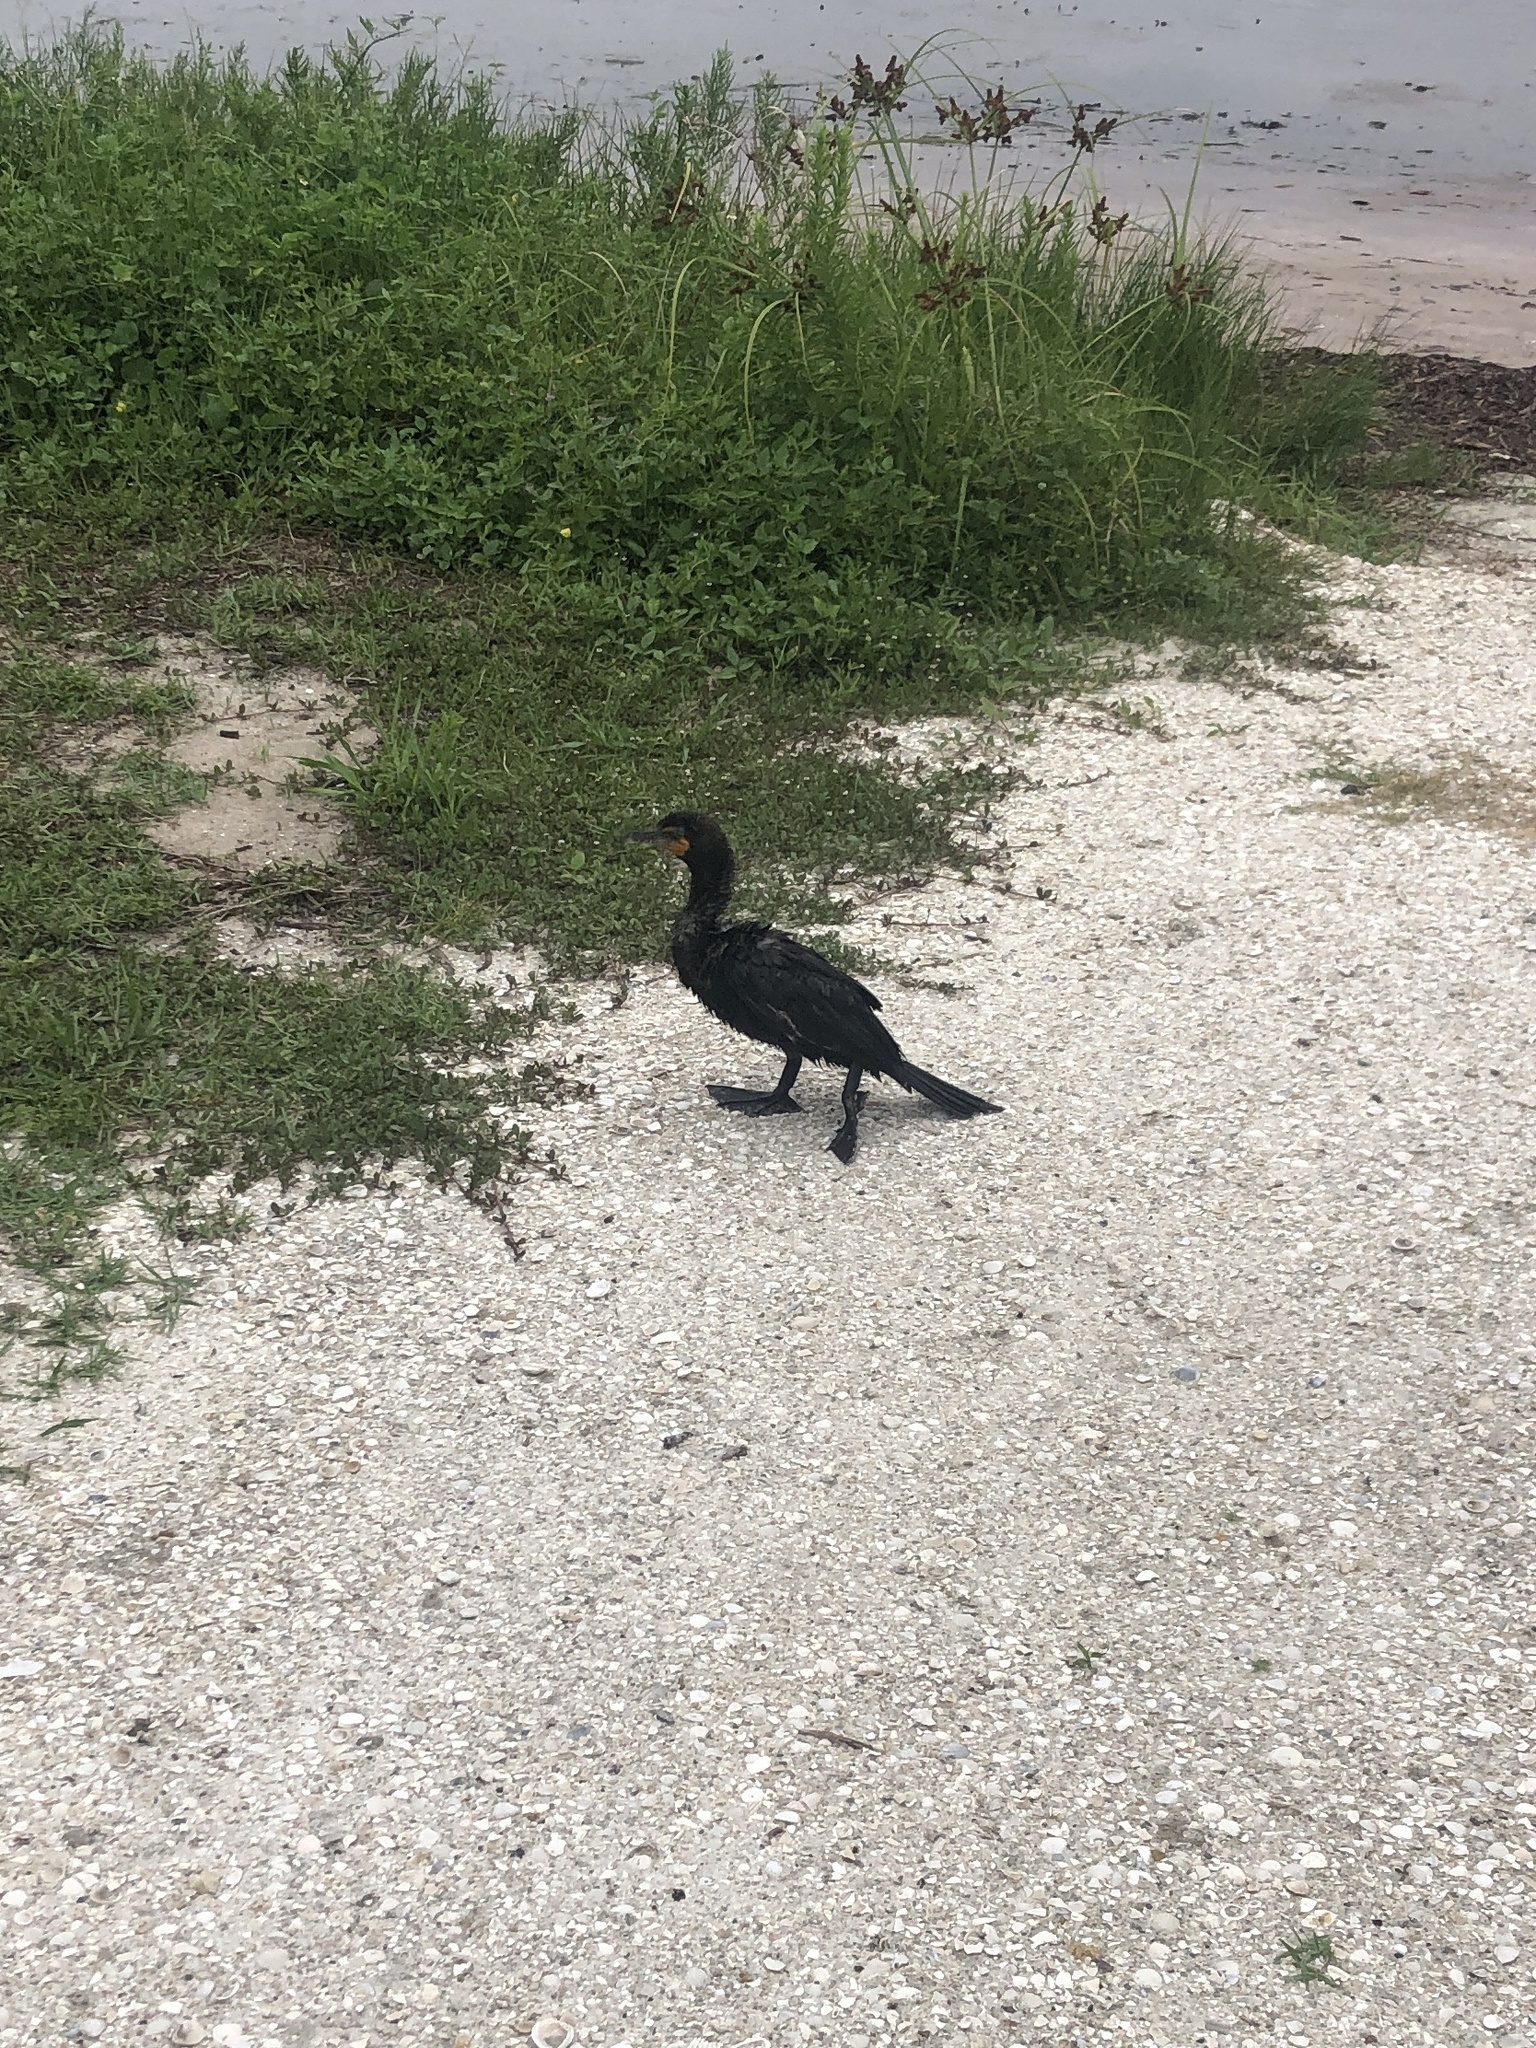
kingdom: Animalia
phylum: Chordata
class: Aves
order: Suliformes
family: Phalacrocoracidae
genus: Phalacrocorax
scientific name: Phalacrocorax auritus
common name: Double-crested cormorant
